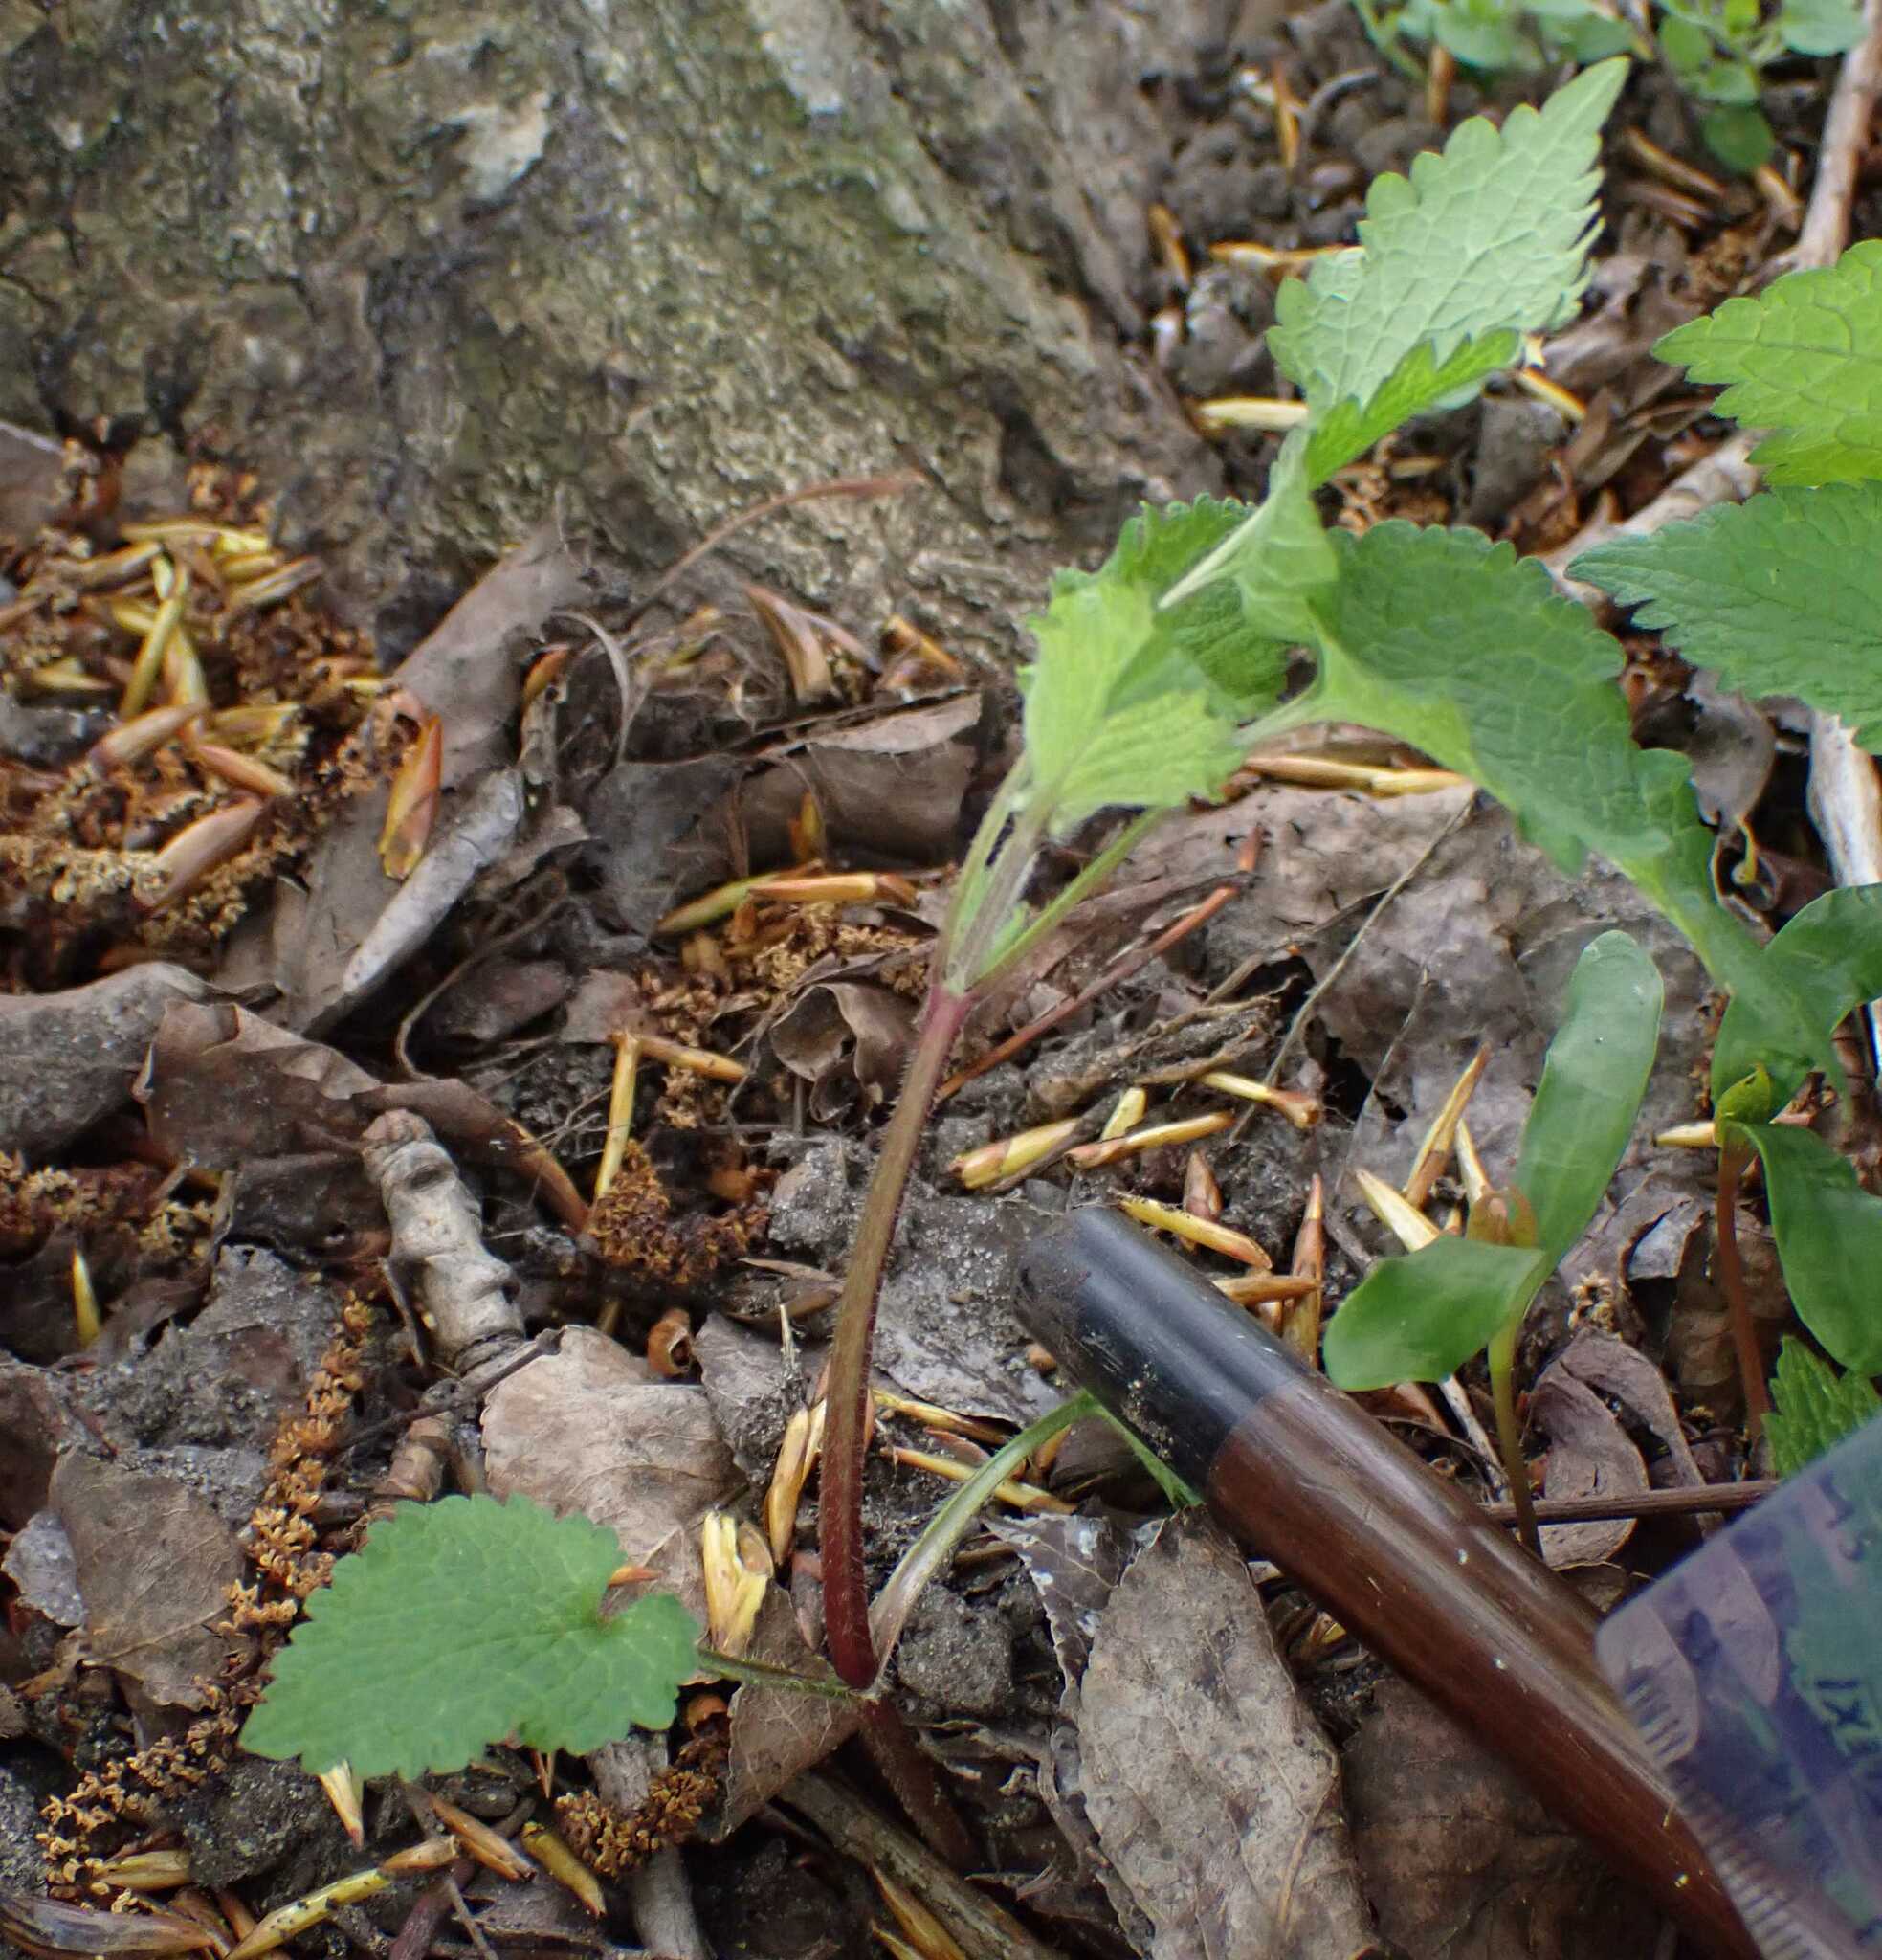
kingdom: Plantae
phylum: Tracheophyta
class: Magnoliopsida
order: Lamiales
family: Lamiaceae
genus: Lamium
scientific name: Lamium album
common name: White dead-nettle
